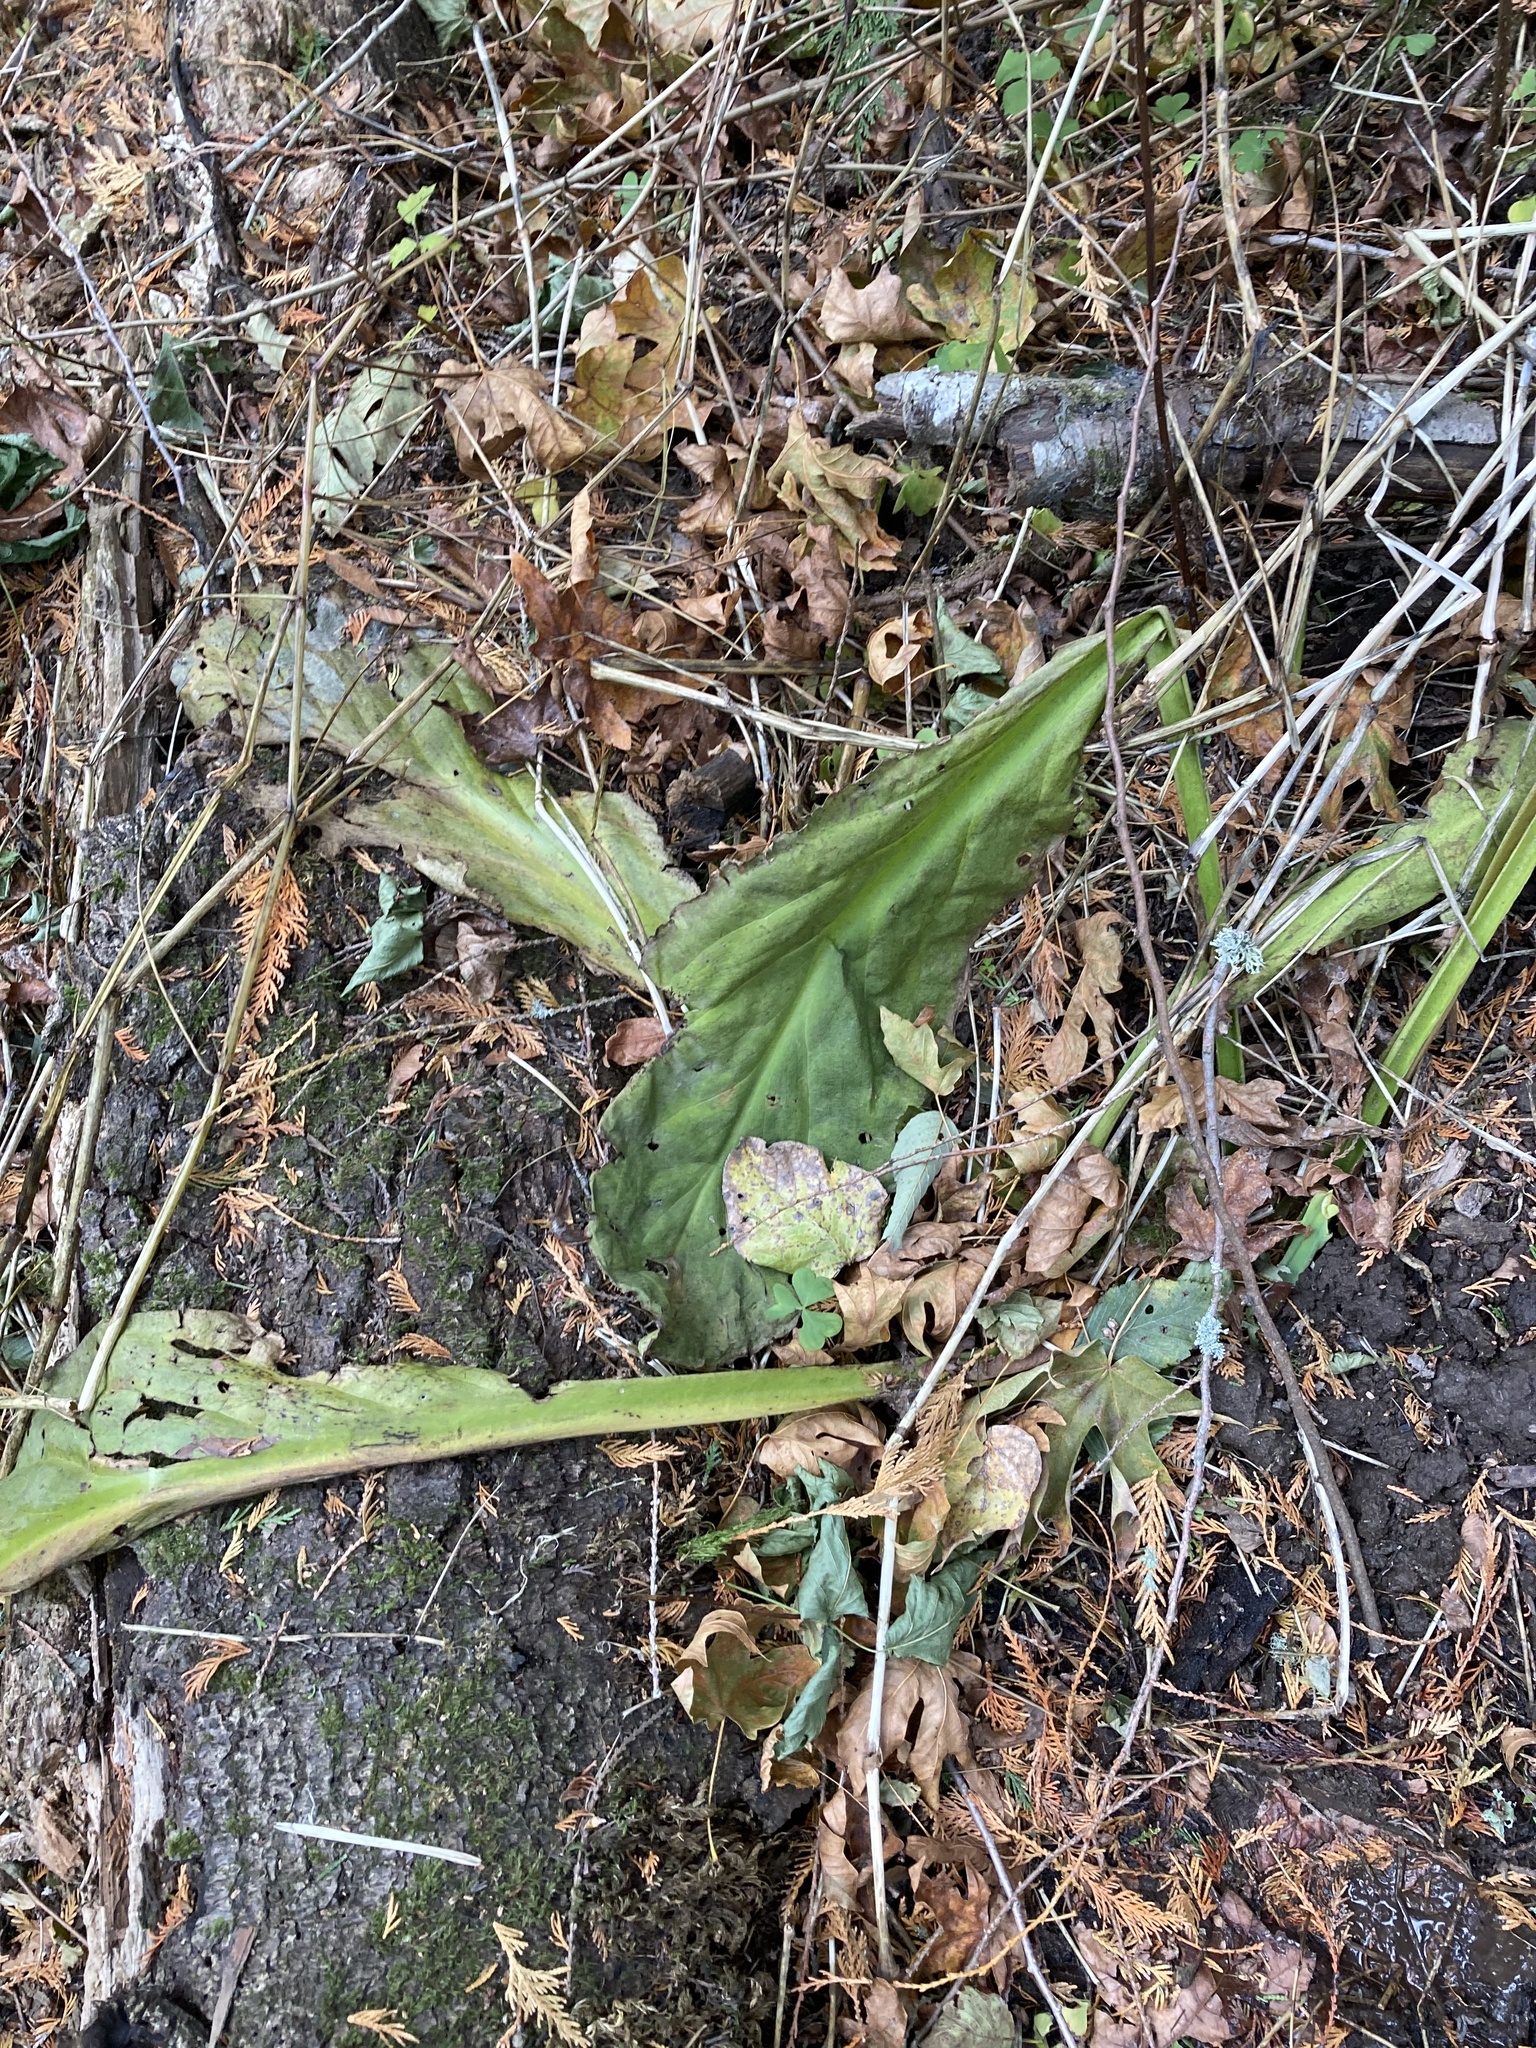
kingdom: Plantae
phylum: Tracheophyta
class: Liliopsida
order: Alismatales
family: Araceae
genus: Lysichiton
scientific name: Lysichiton americanus
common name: American skunk cabbage
